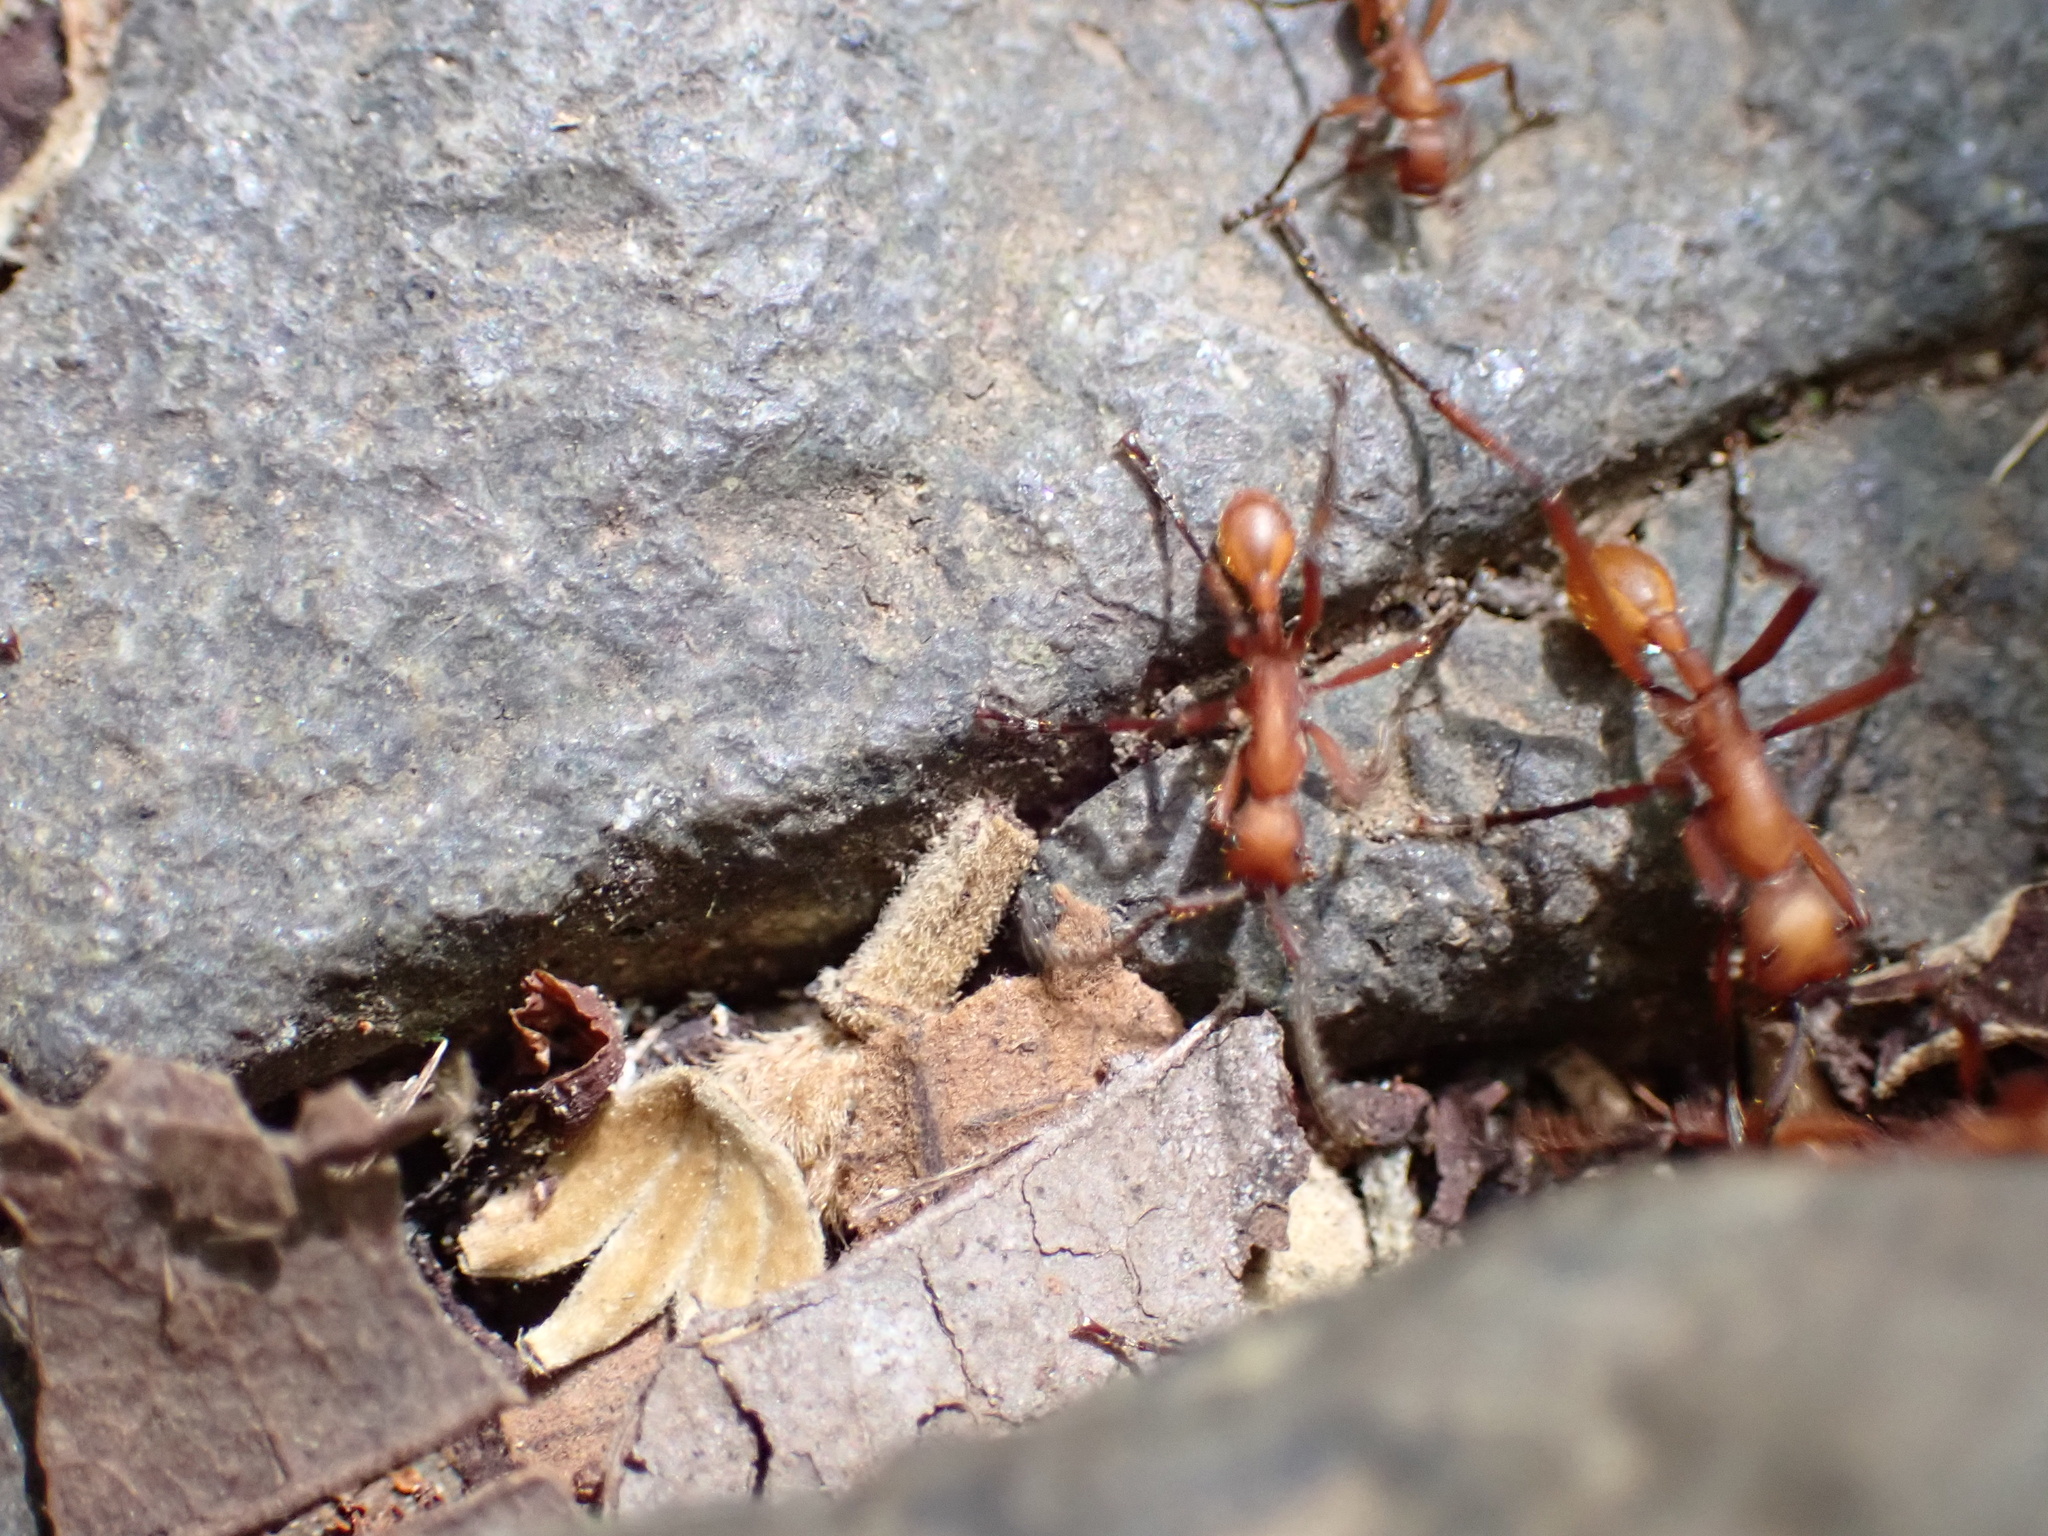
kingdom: Animalia
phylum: Arthropoda
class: Insecta
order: Hymenoptera
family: Formicidae
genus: Eciton
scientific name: Eciton
